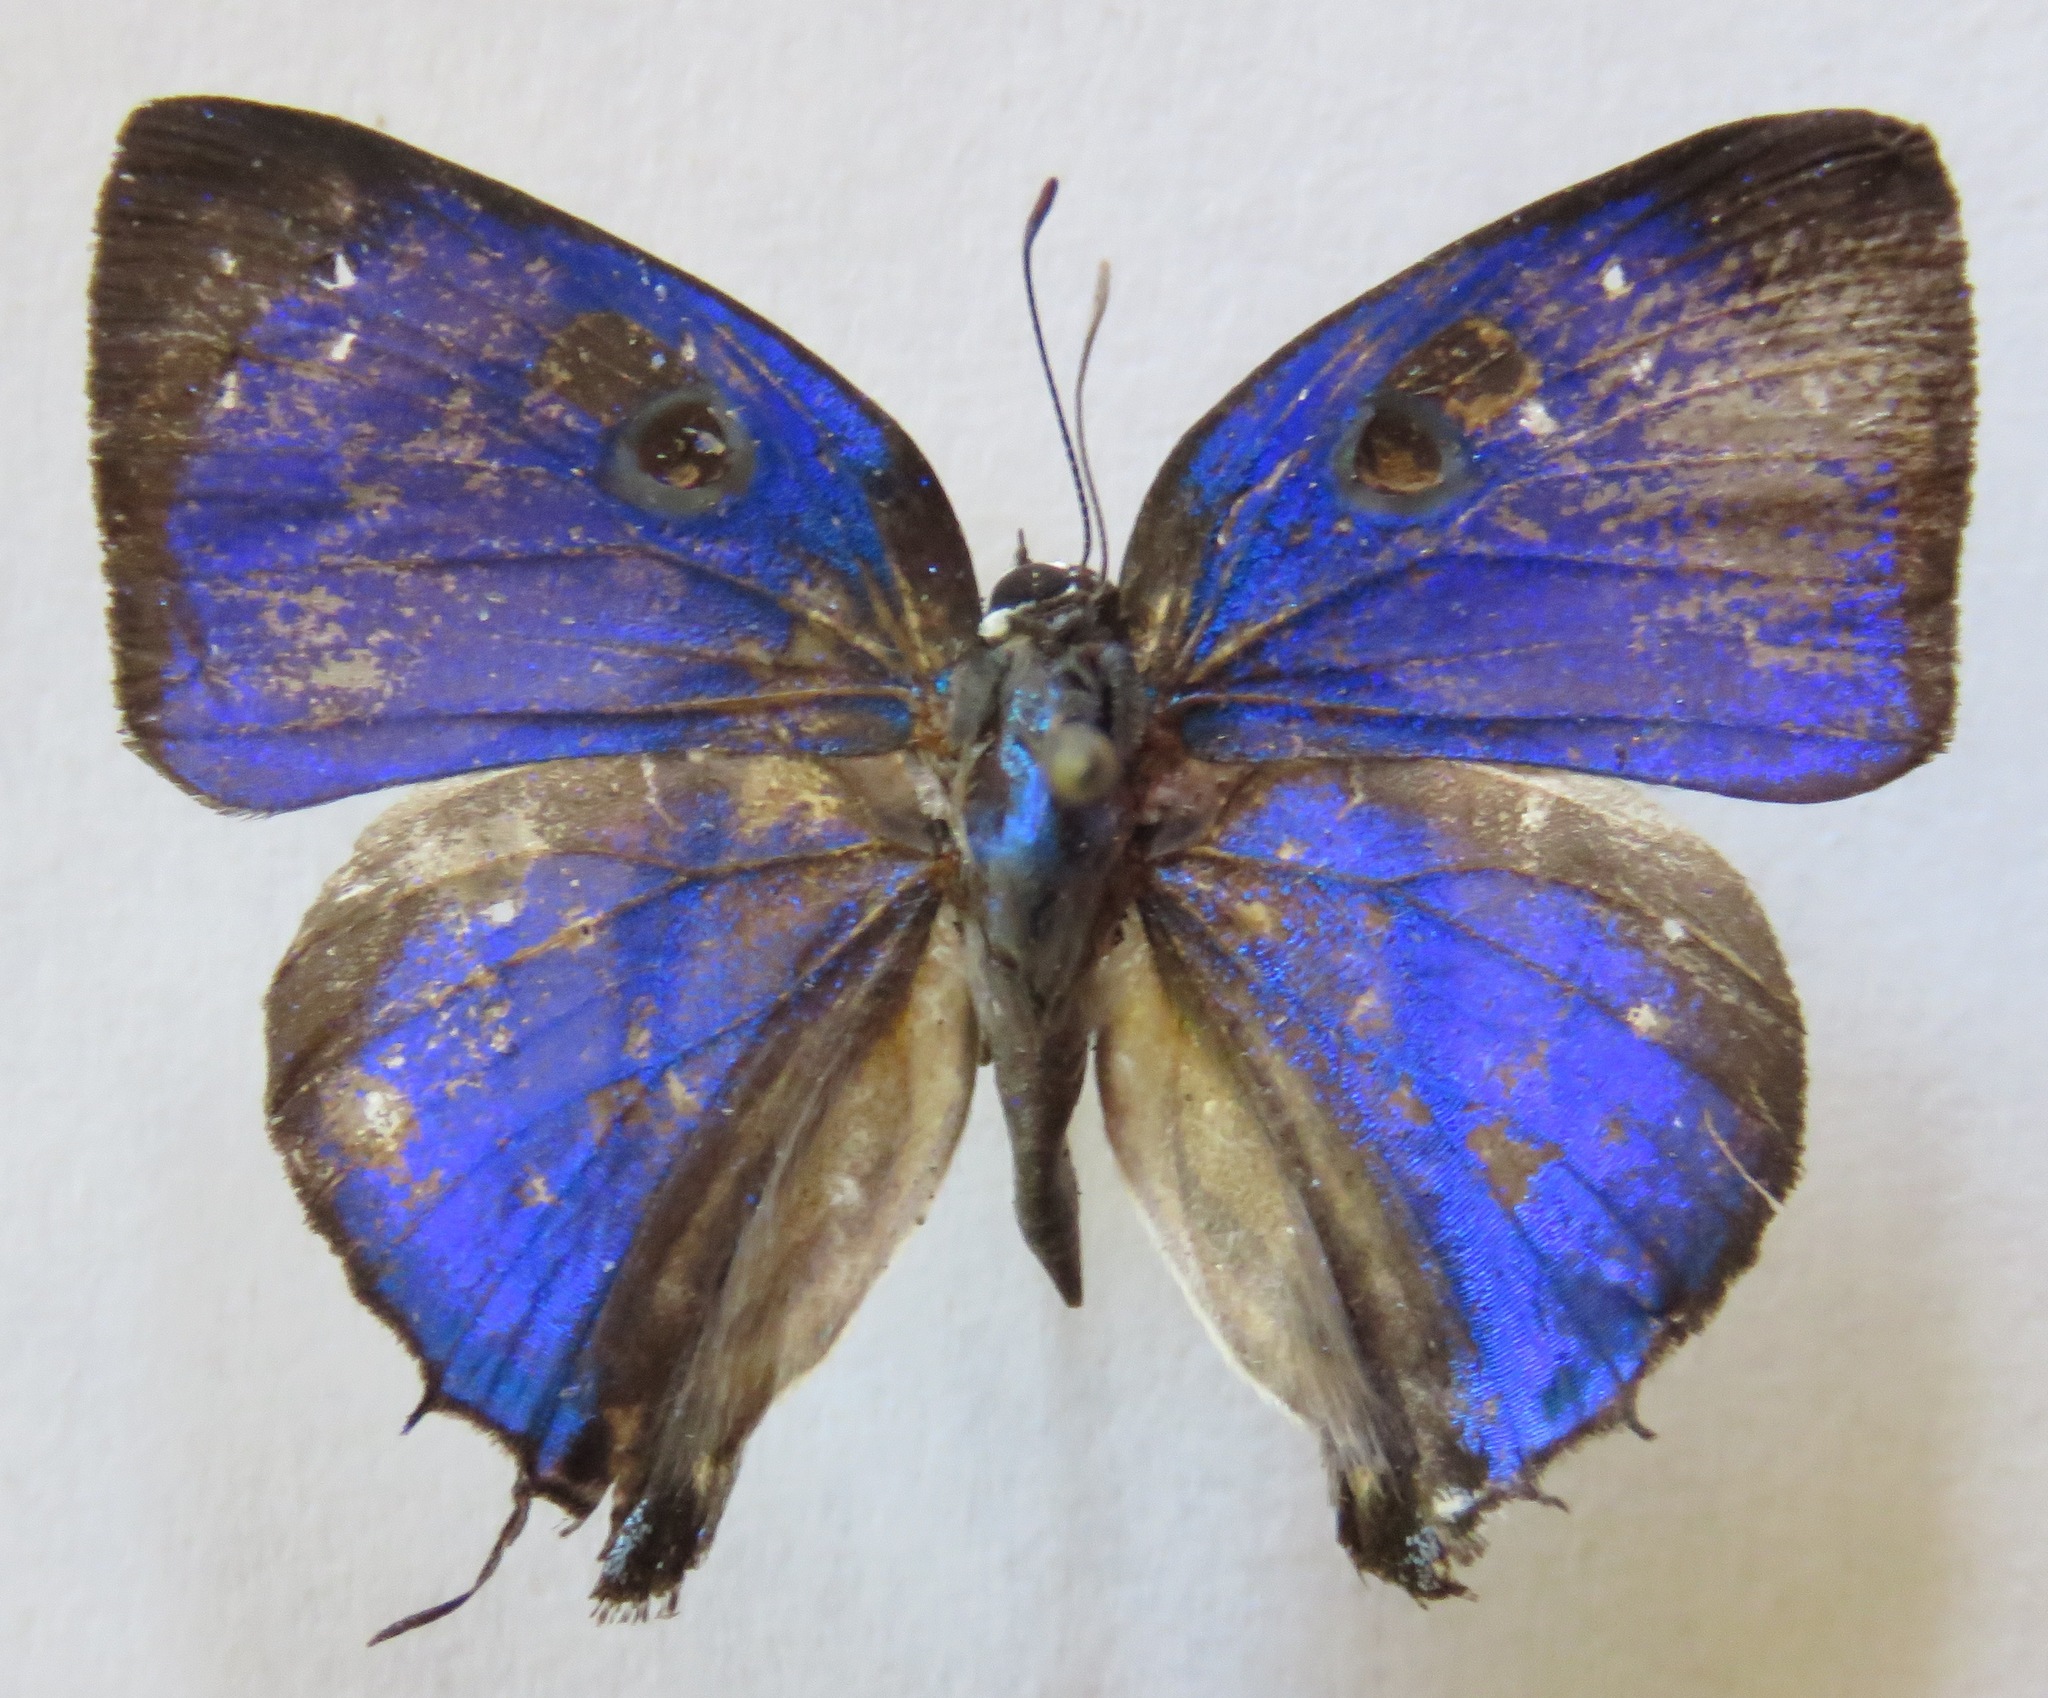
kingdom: Animalia
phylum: Arthropoda
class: Insecta
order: Lepidoptera
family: Lycaenidae
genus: Cycnus
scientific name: Cycnus phaleros
